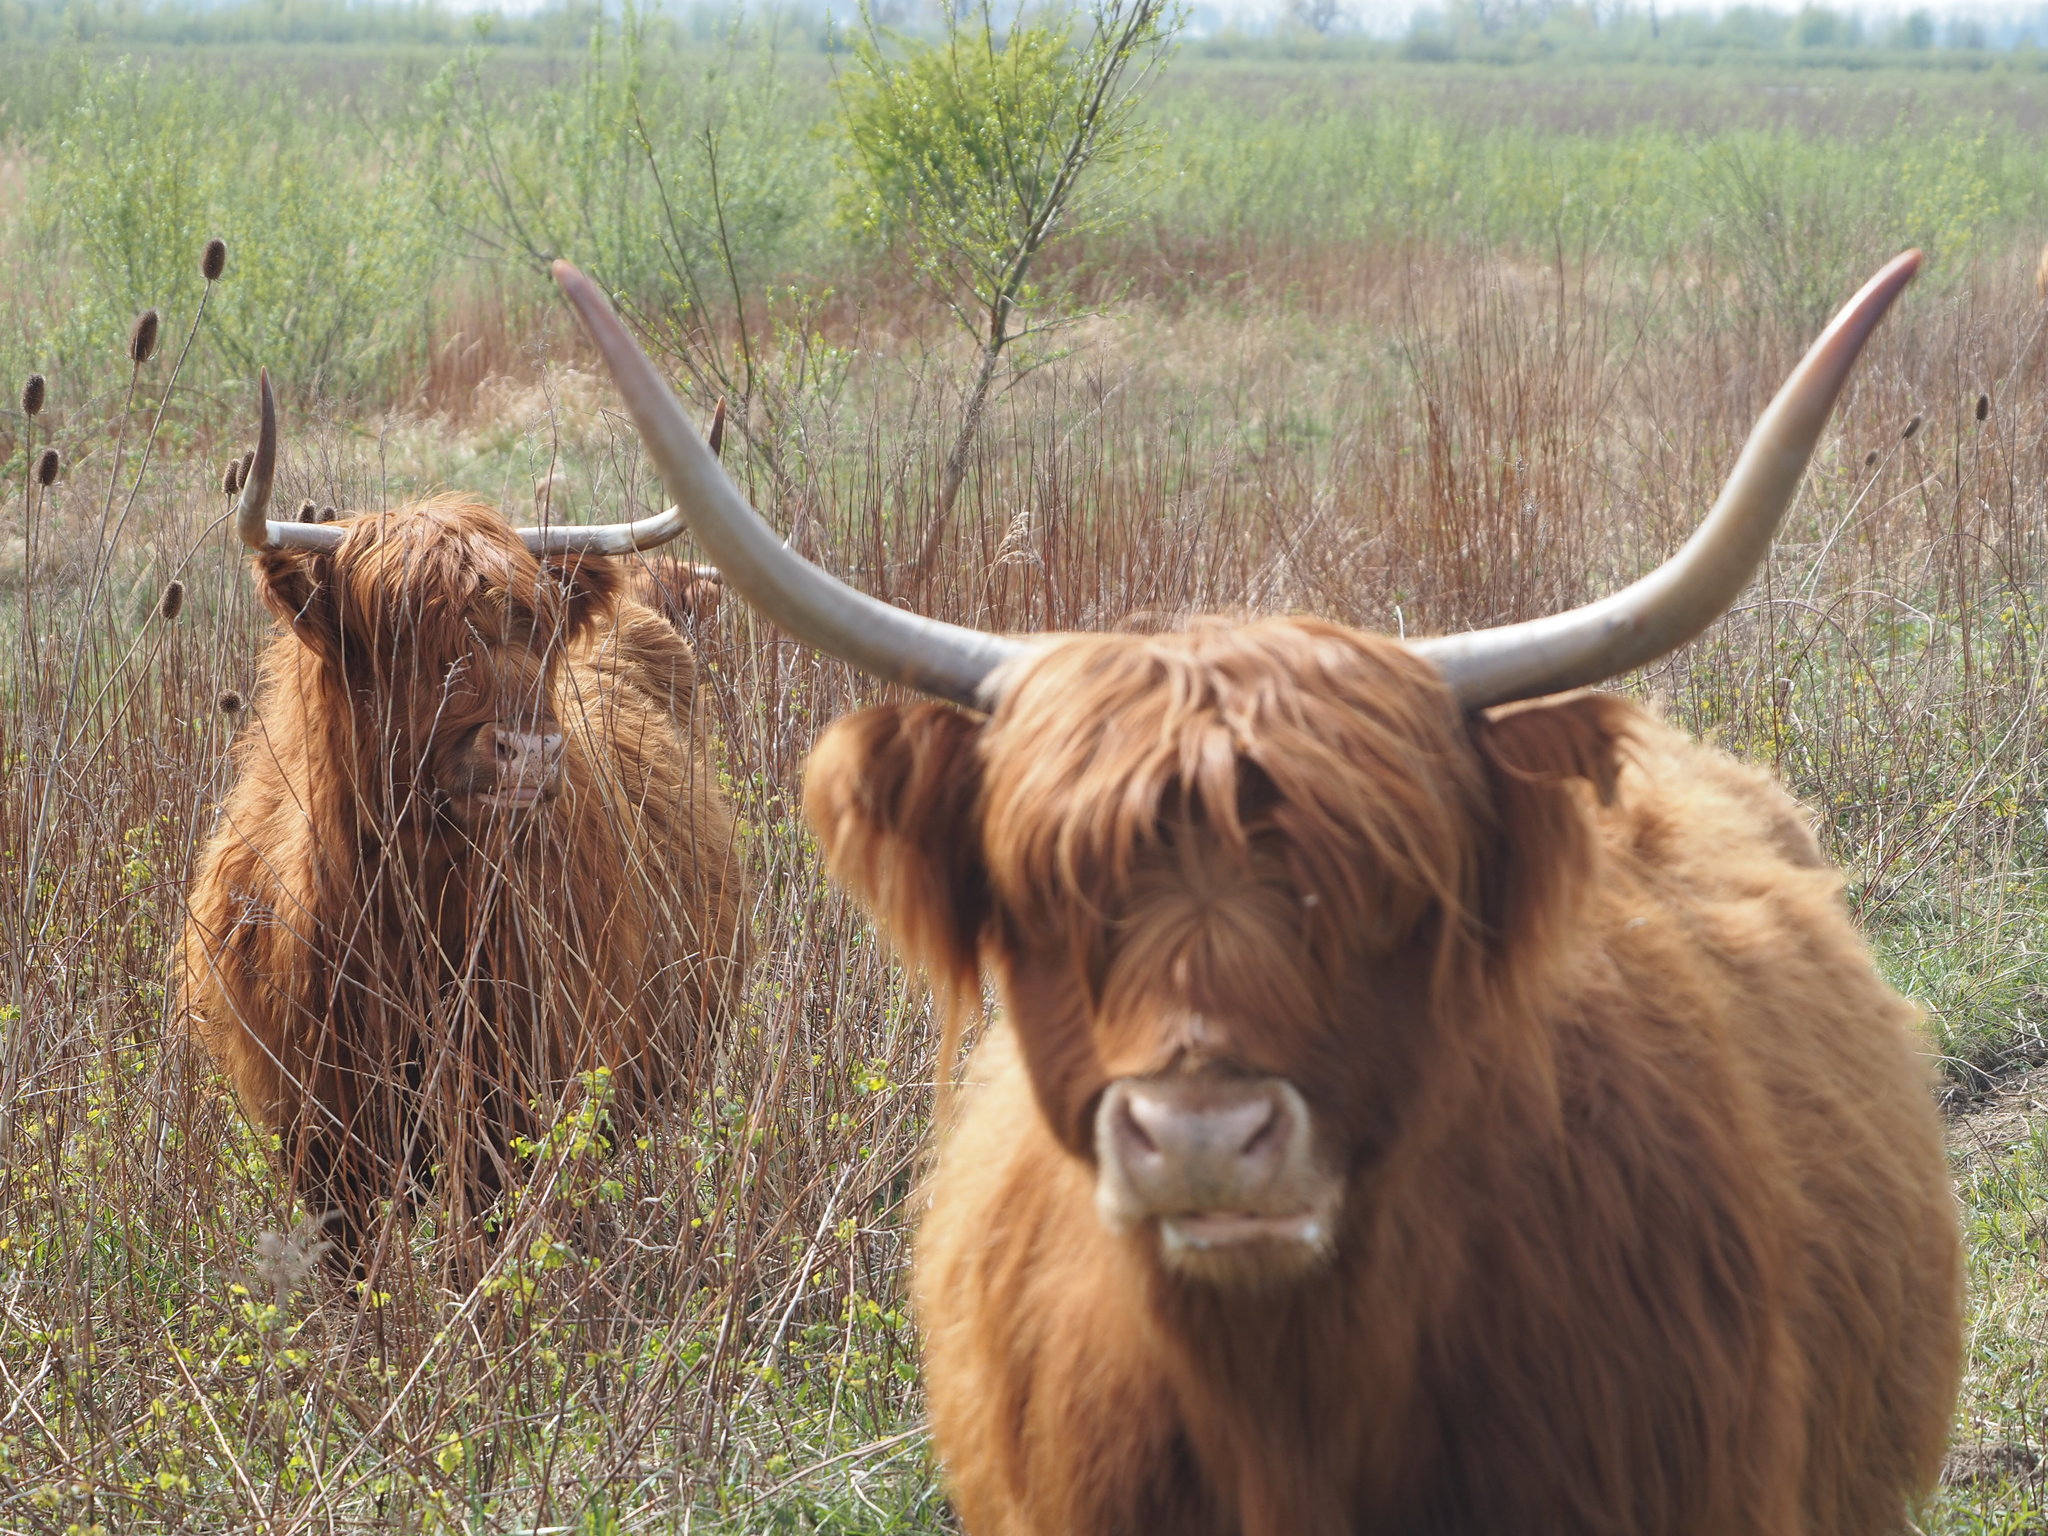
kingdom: Animalia
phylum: Chordata
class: Mammalia
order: Artiodactyla
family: Bovidae
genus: Bos
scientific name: Bos taurus
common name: Domesticated cattle
